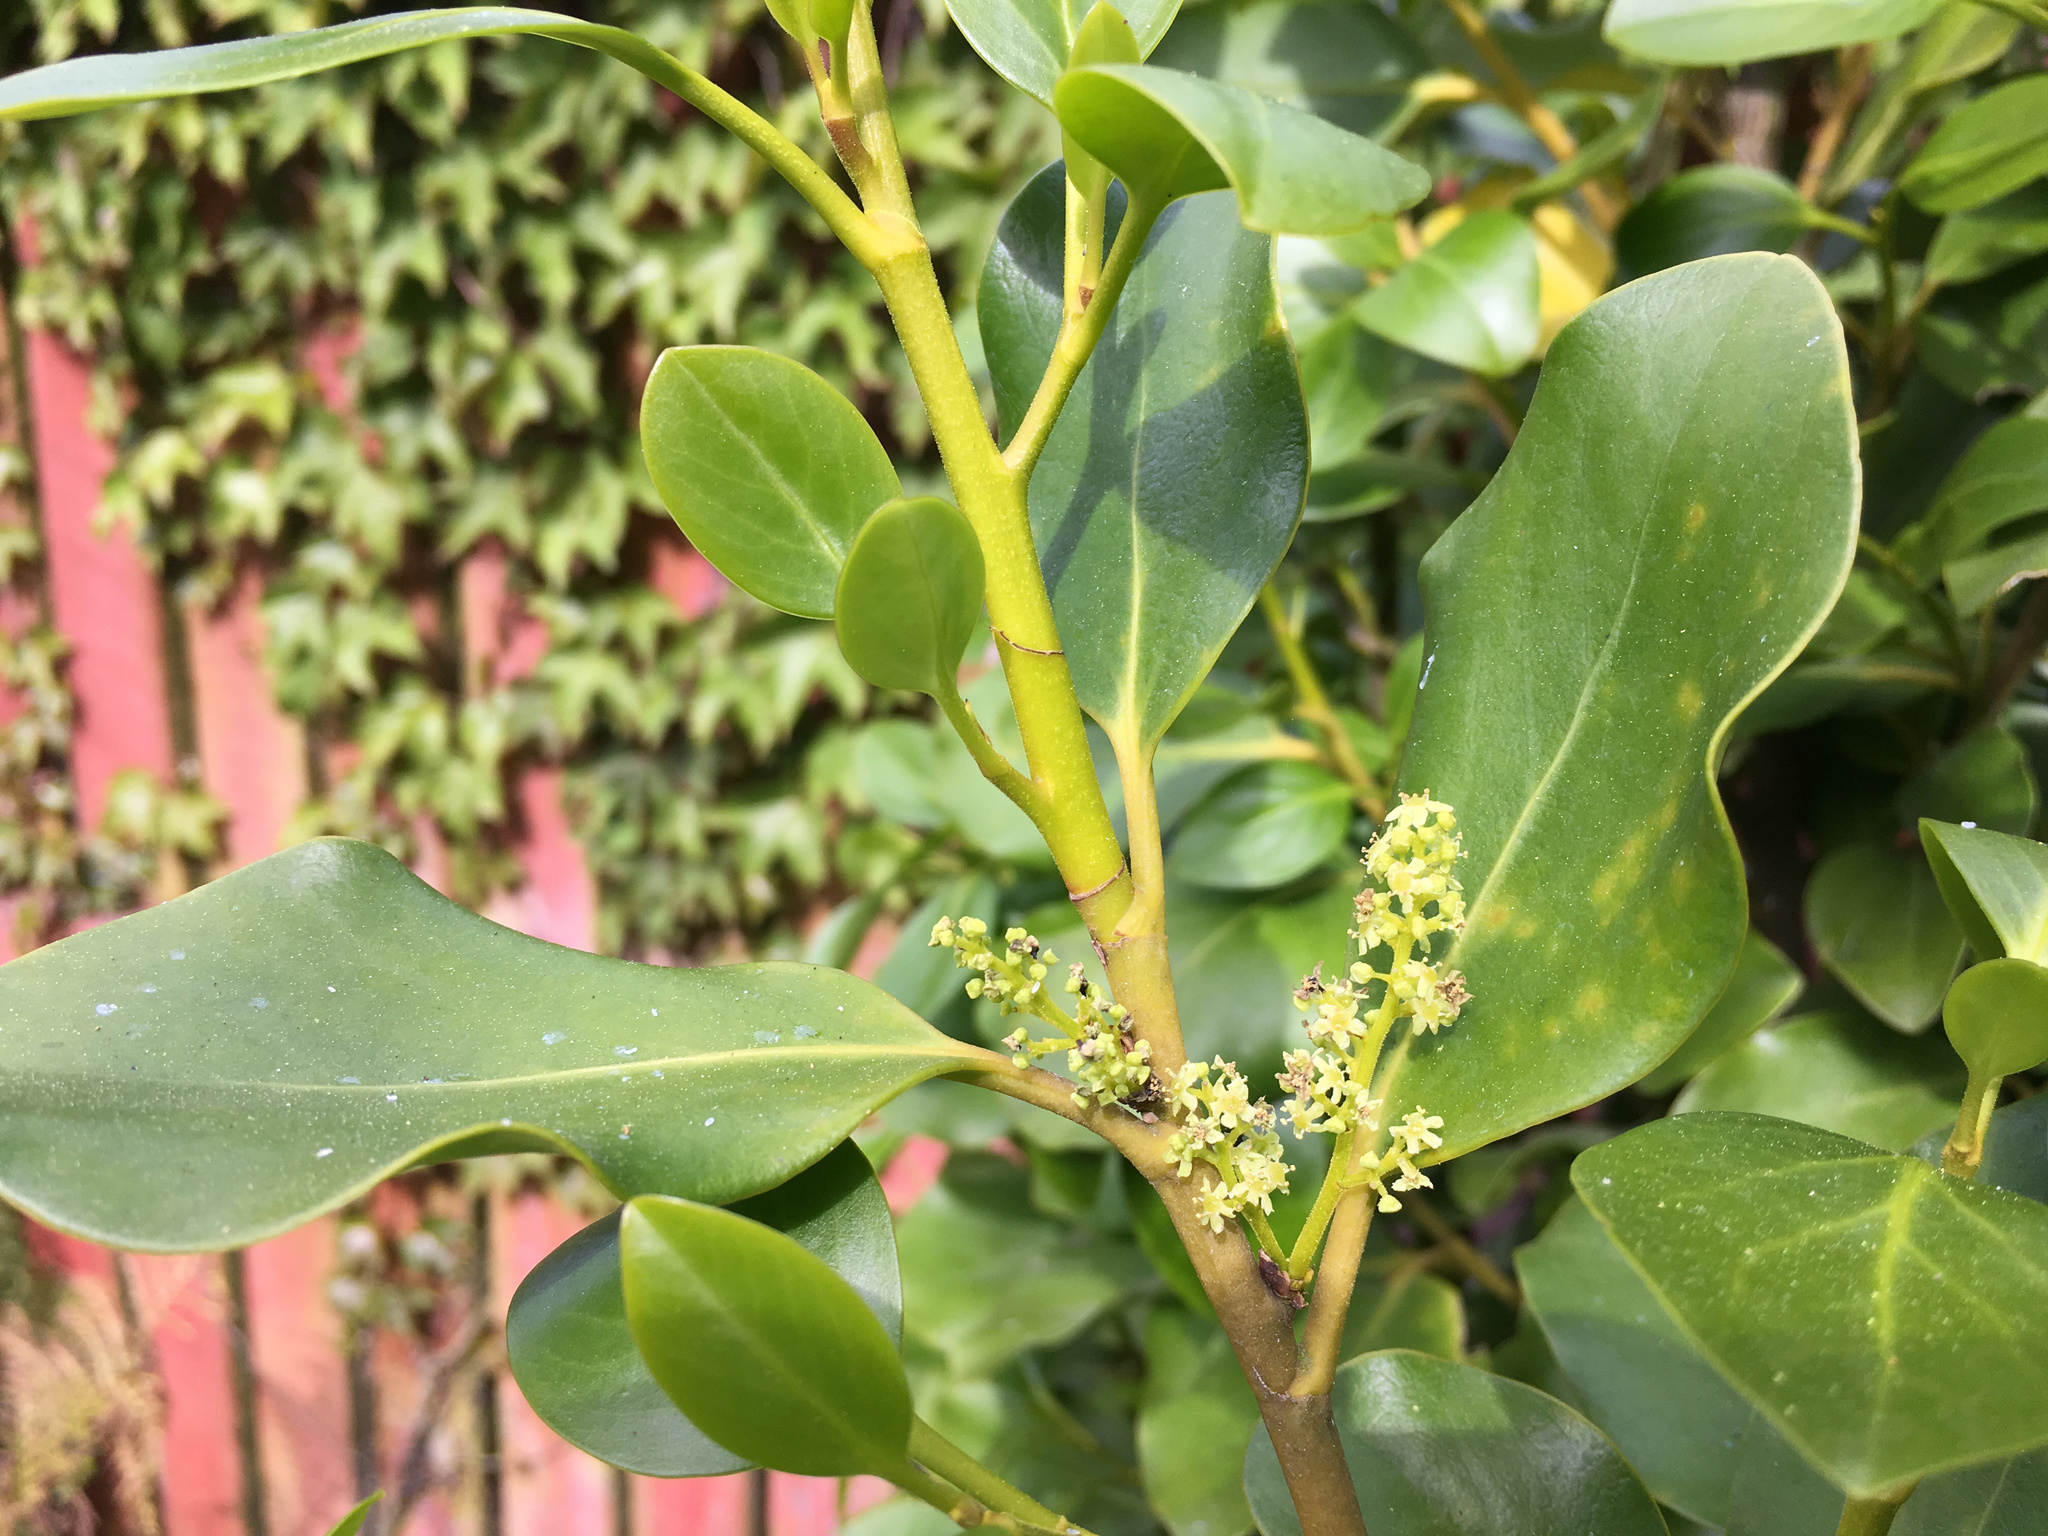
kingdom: Plantae
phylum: Tracheophyta
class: Magnoliopsida
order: Apiales
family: Griseliniaceae
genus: Griselinia
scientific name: Griselinia littoralis
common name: New zealand broadleaf
